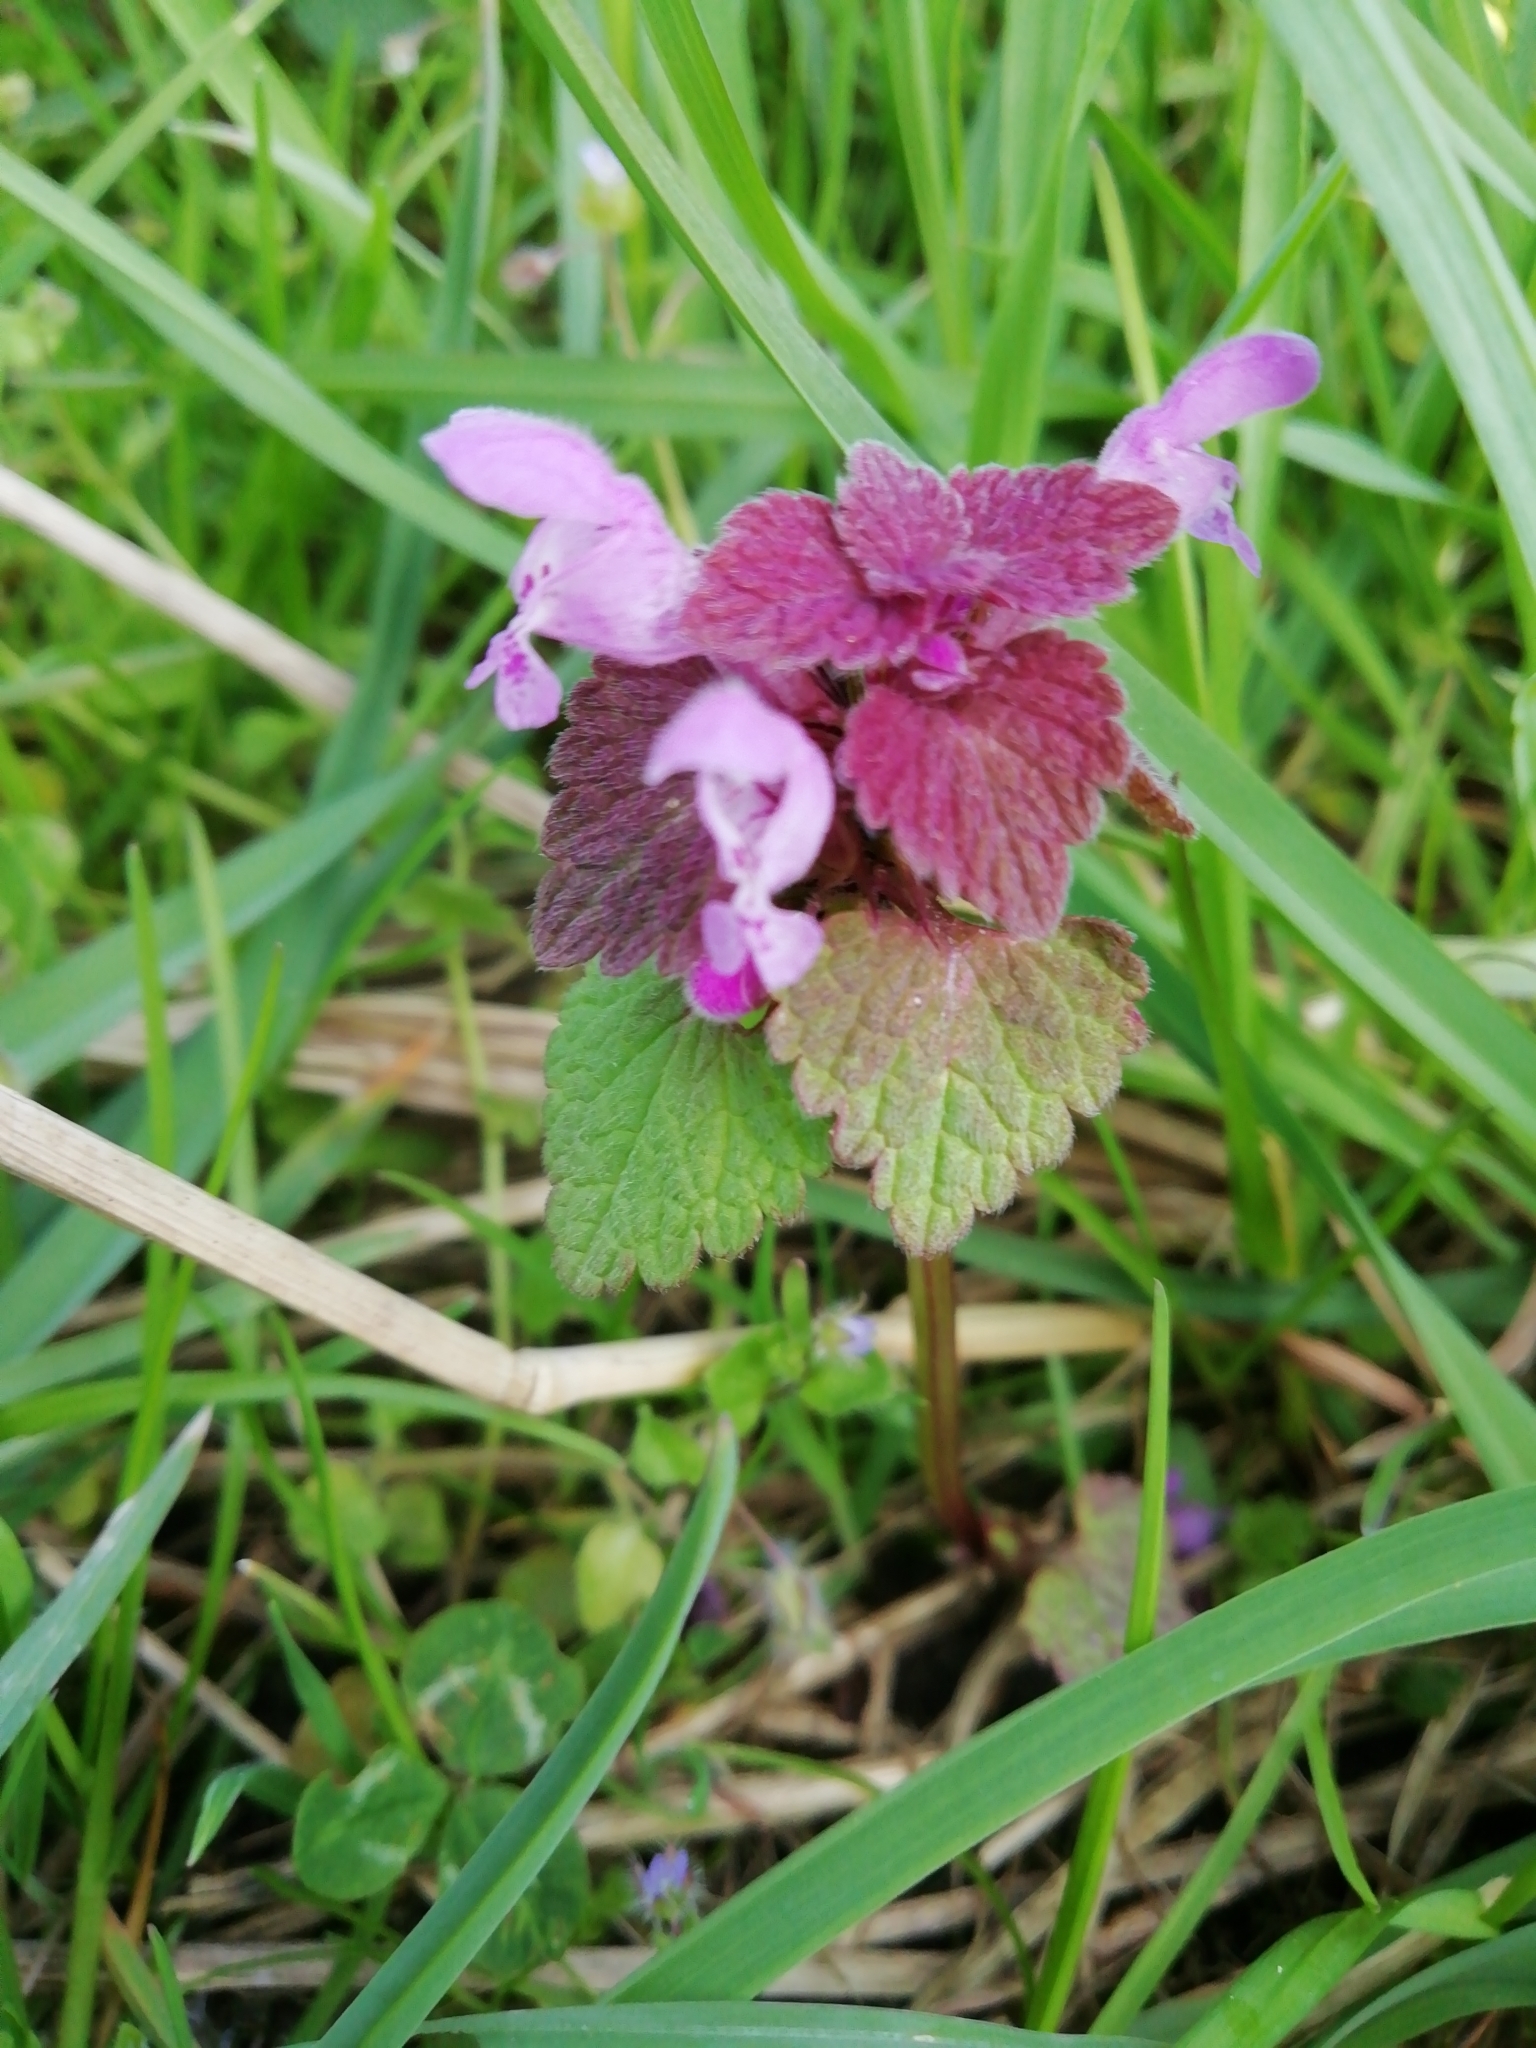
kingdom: Plantae
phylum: Tracheophyta
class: Magnoliopsida
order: Lamiales
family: Lamiaceae
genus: Lamium
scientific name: Lamium purpureum
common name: Red dead-nettle
